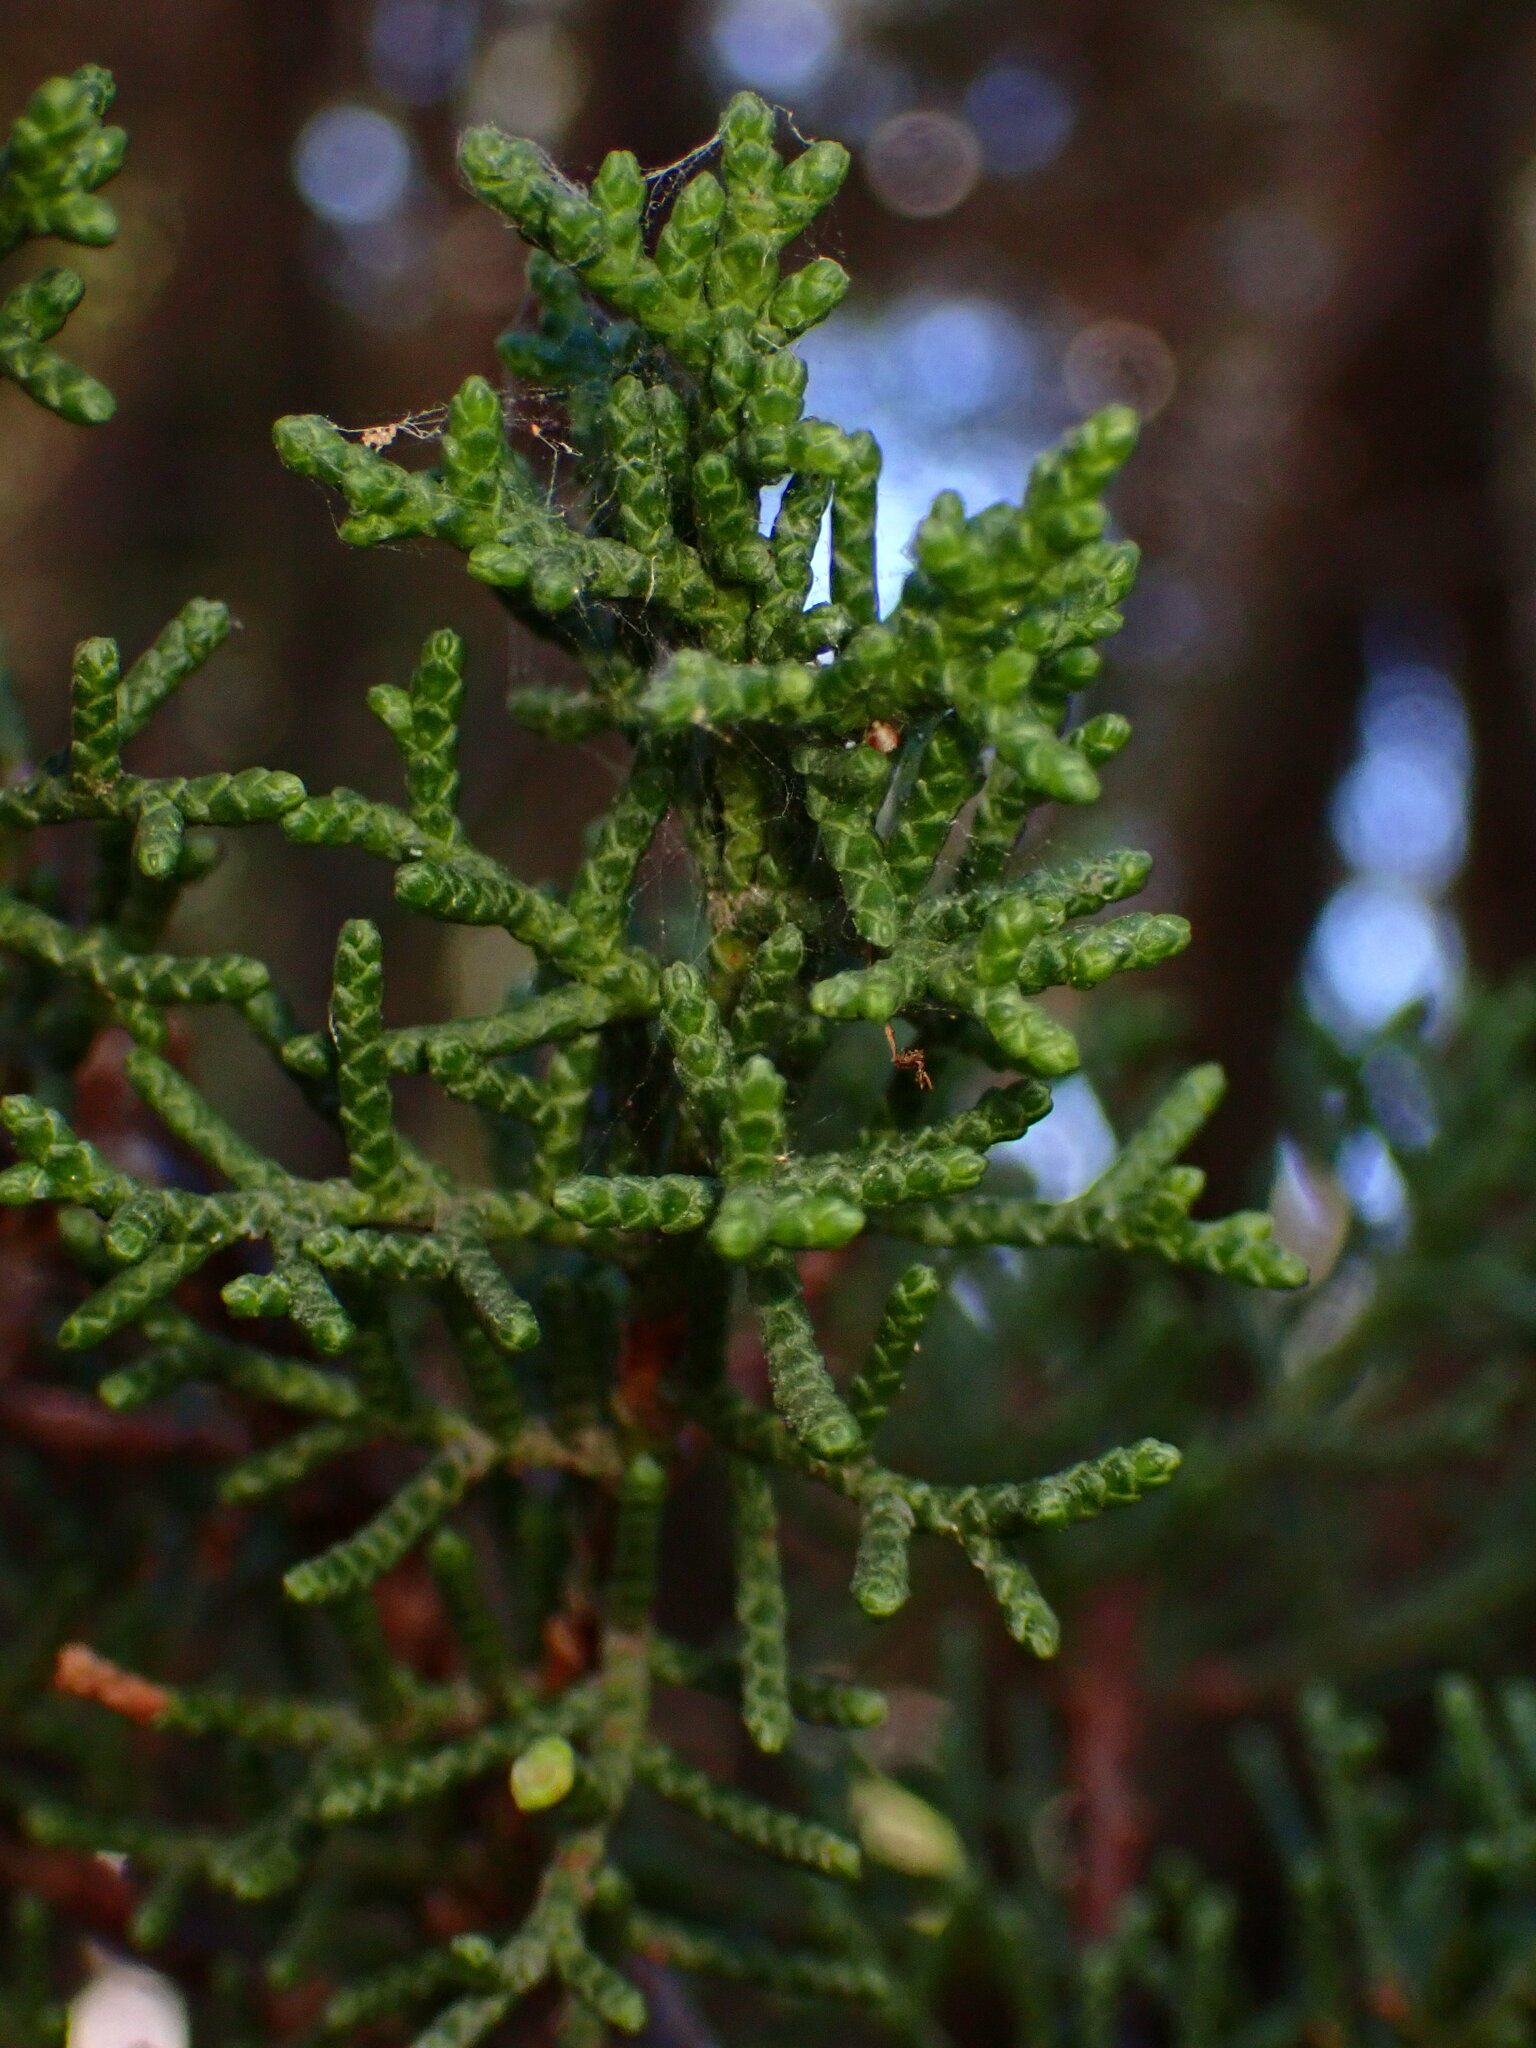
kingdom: Plantae
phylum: Tracheophyta
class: Pinopsida
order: Pinales
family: Cupressaceae
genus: Cupressus
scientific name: Cupressus goveniana
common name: Gowen cypress
